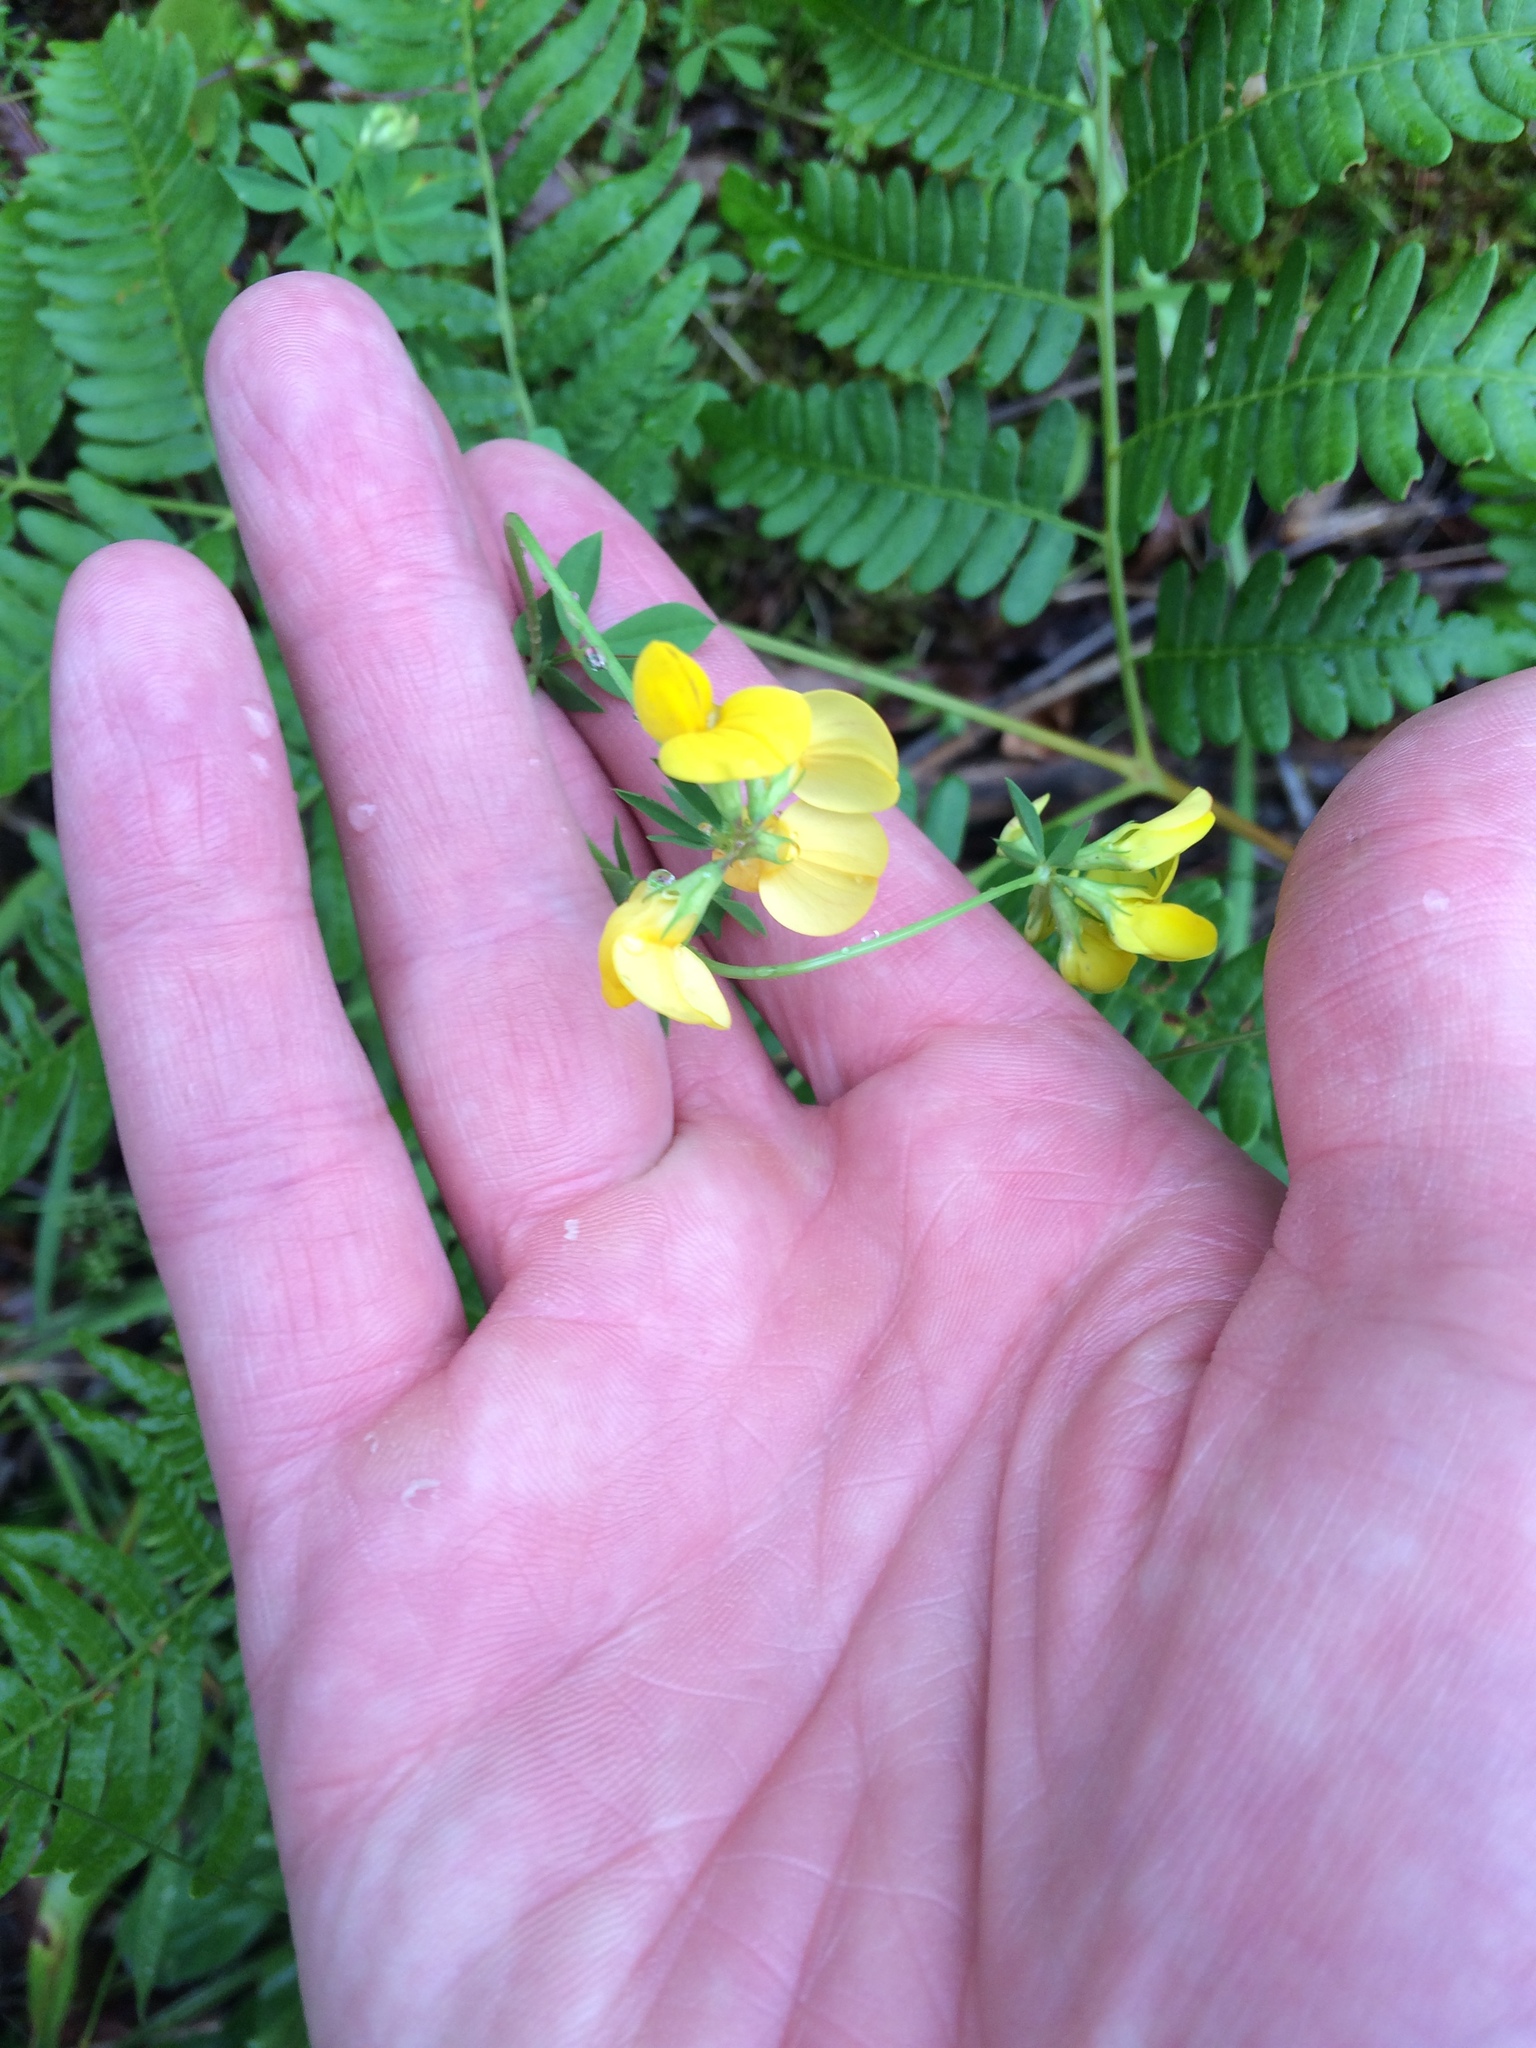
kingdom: Plantae
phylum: Tracheophyta
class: Magnoliopsida
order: Fabales
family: Fabaceae
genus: Lotus
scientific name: Lotus corniculatus
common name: Common bird's-foot-trefoil
